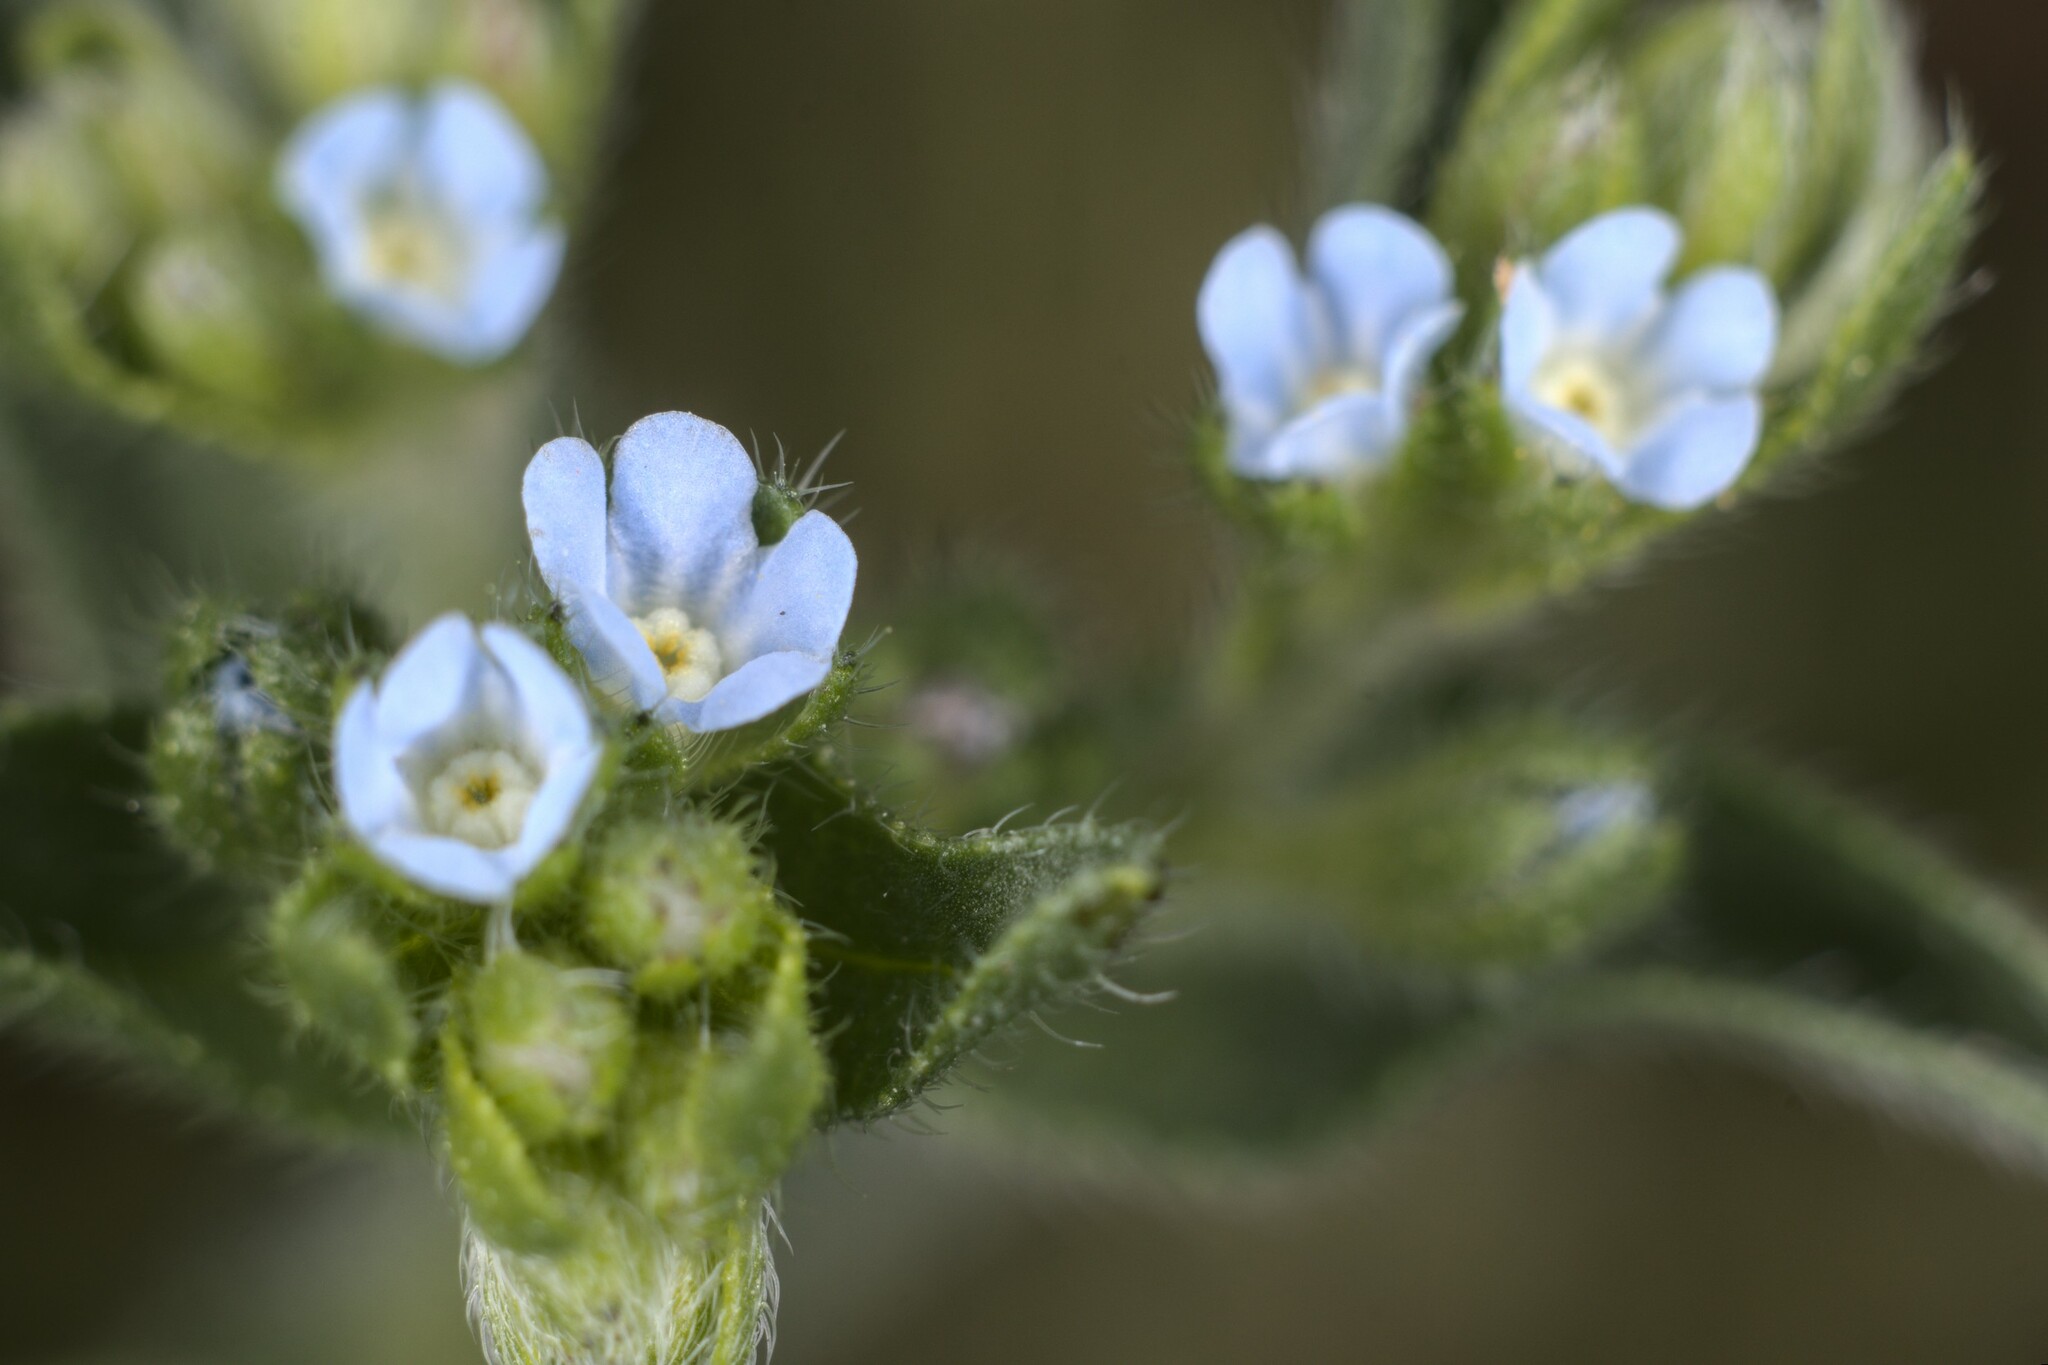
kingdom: Plantae
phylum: Tracheophyta
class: Magnoliopsida
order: Boraginales
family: Boraginaceae
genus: Lappula
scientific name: Lappula squarrosa
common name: European stickseed
